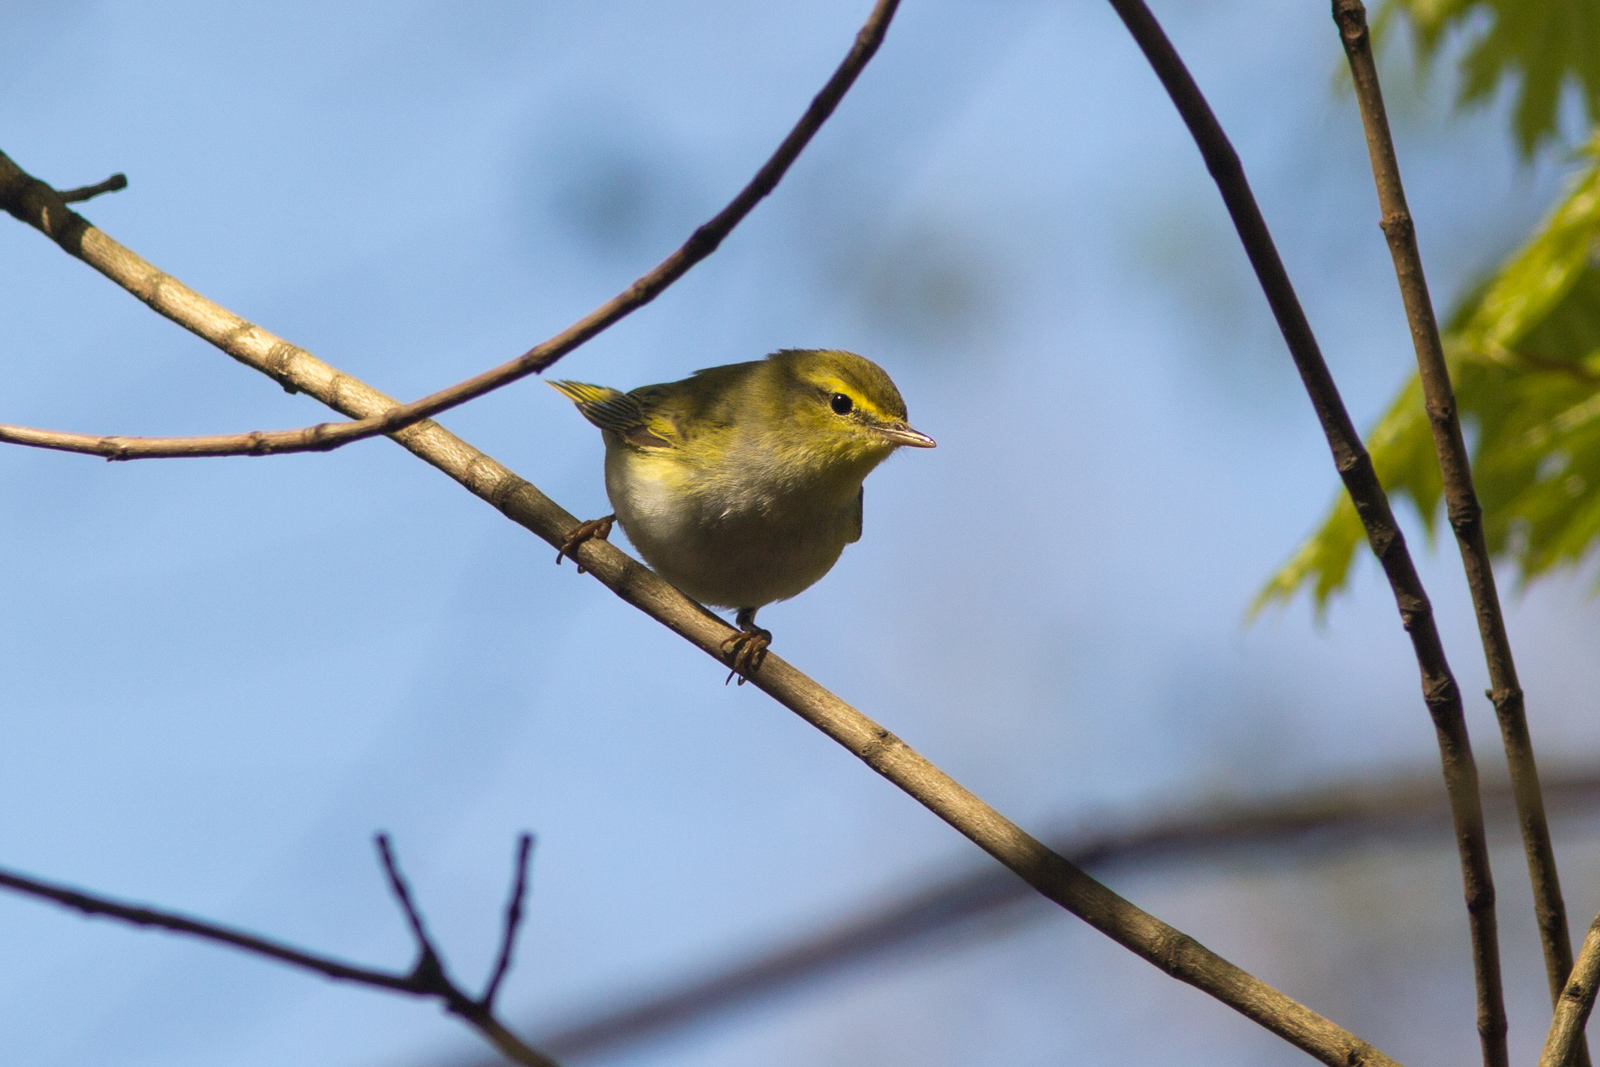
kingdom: Animalia
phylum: Chordata
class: Aves
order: Passeriformes
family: Phylloscopidae
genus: Phylloscopus
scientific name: Phylloscopus sibillatrix
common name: Wood warbler
